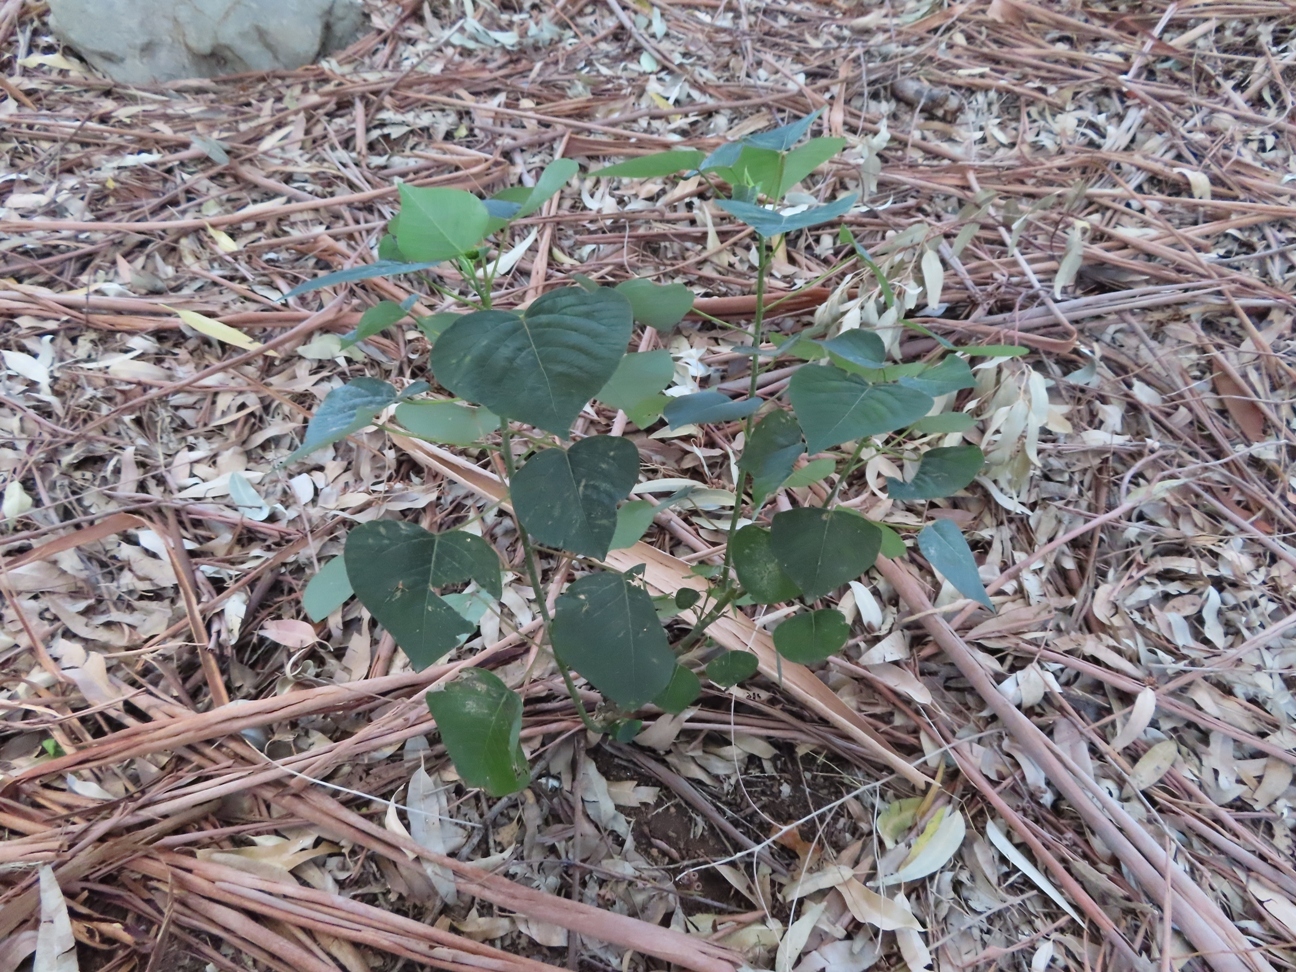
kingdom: Plantae
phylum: Tracheophyta
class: Magnoliopsida
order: Malpighiales
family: Euphorbiaceae
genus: Homalanthus
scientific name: Homalanthus populifolius
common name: Queensland poplar
